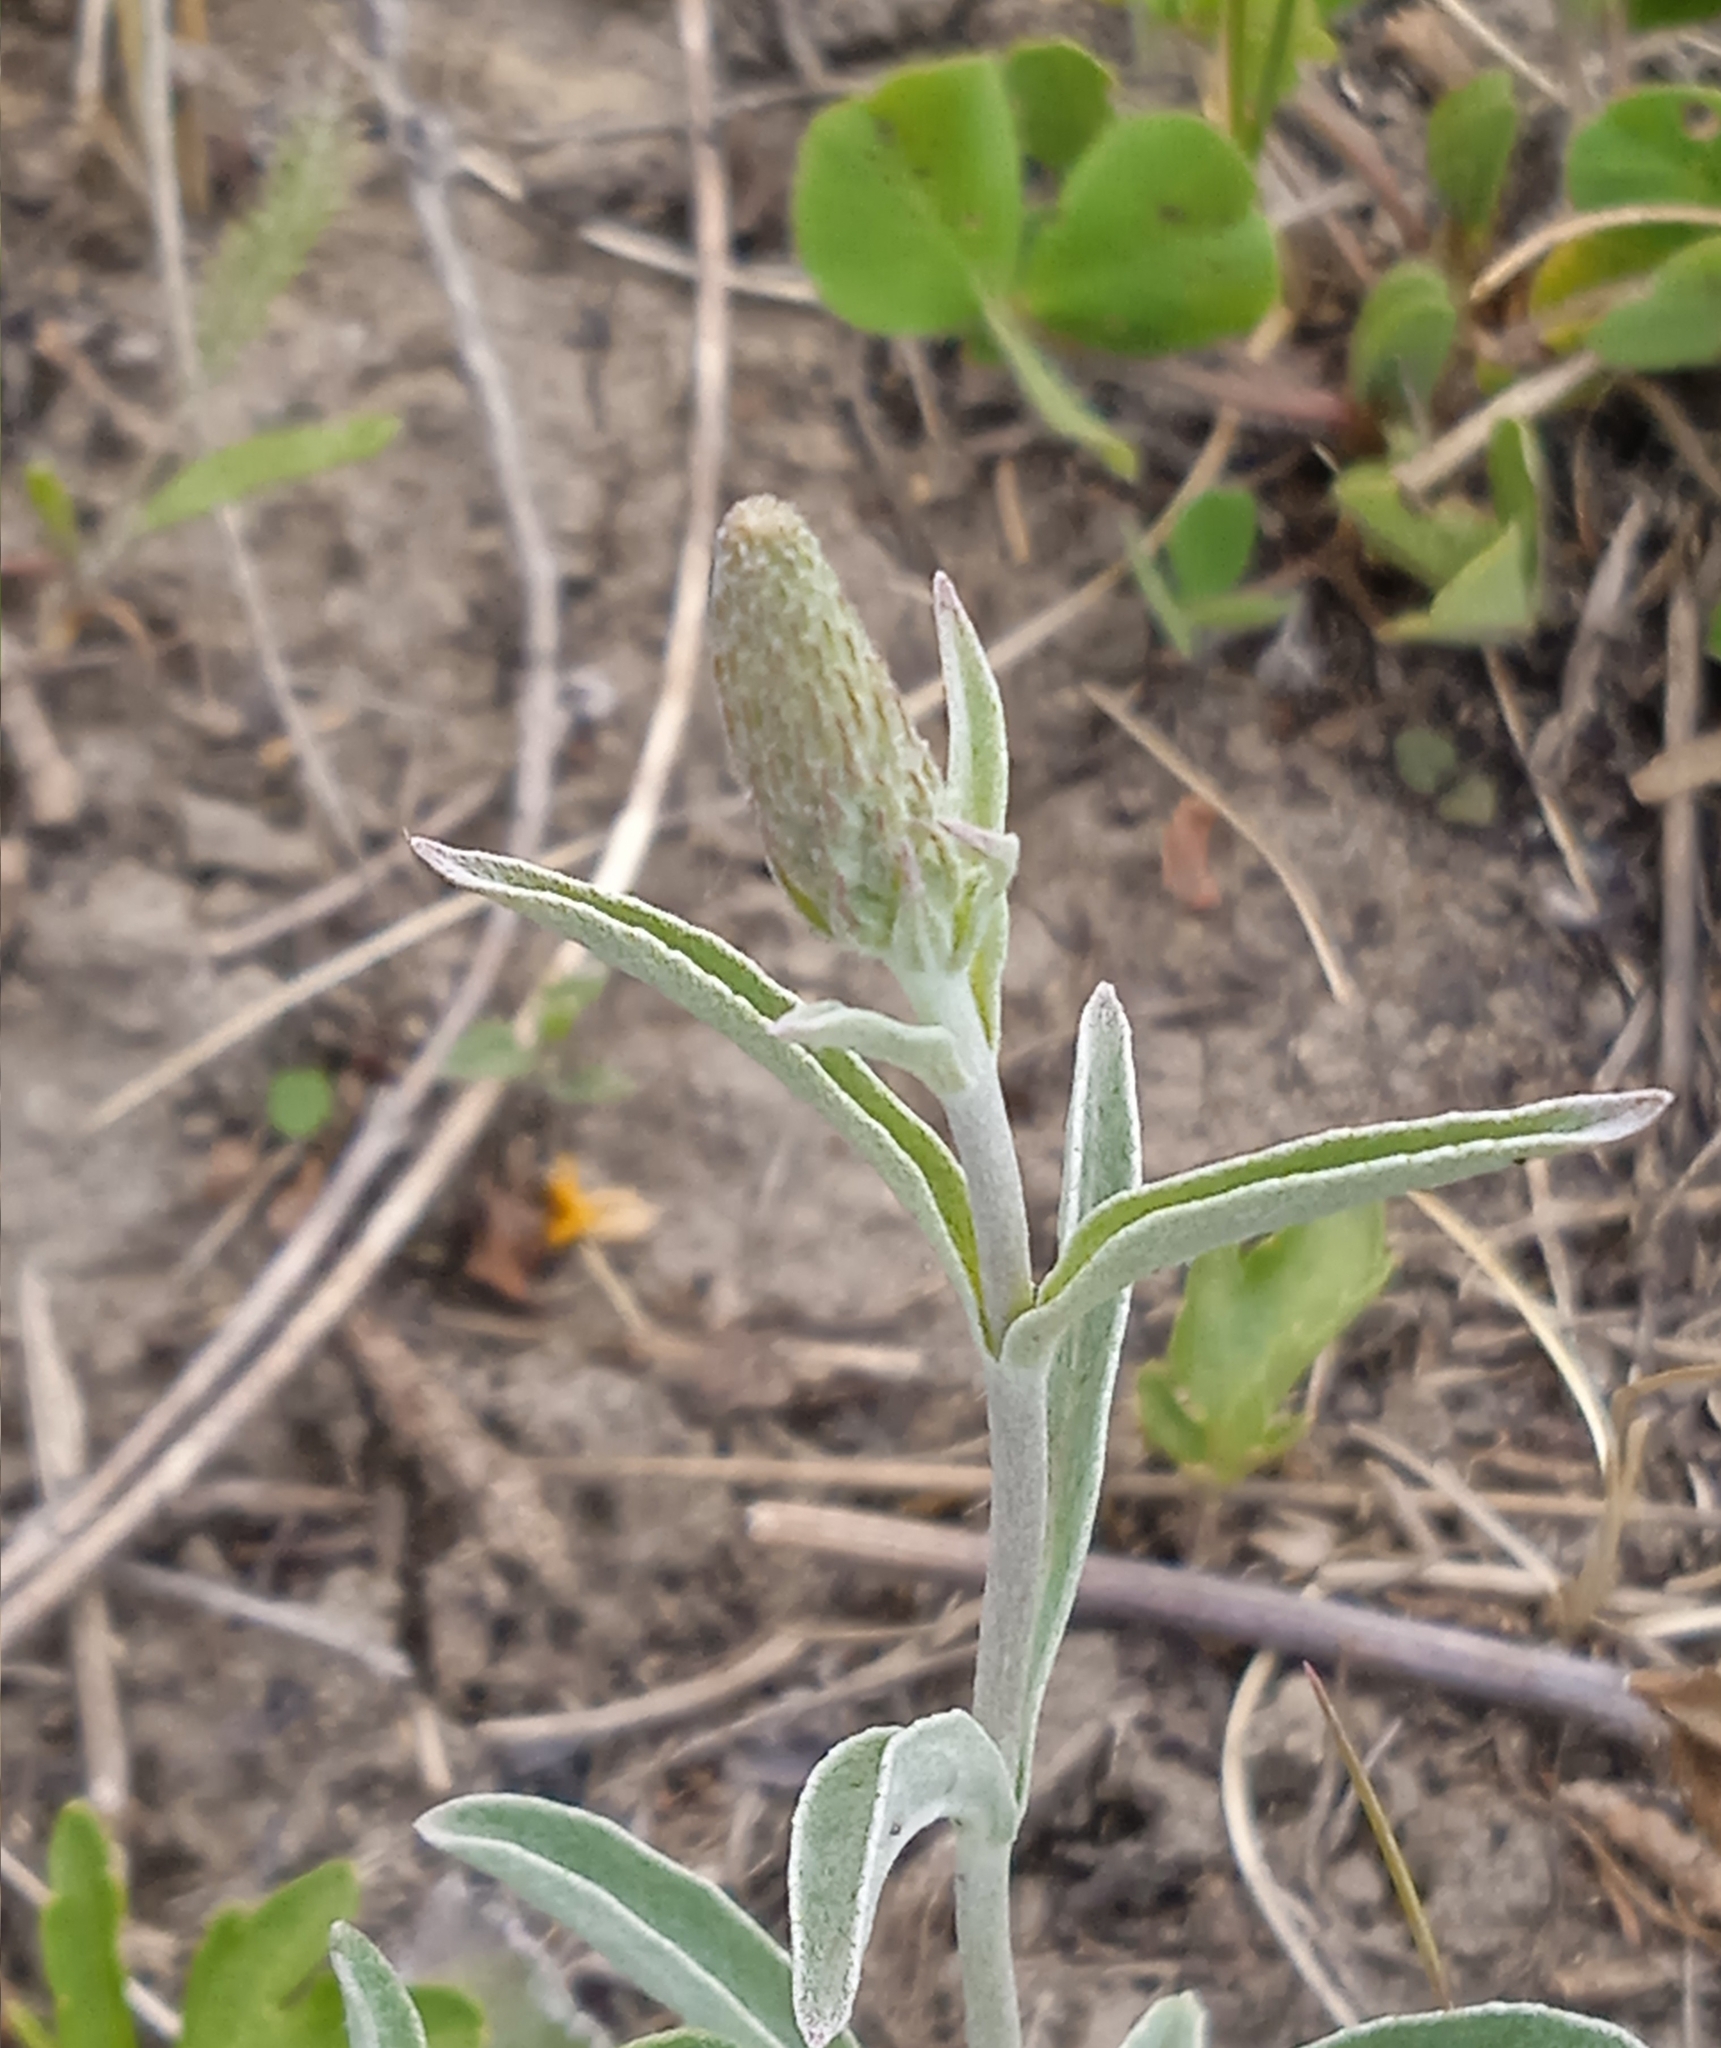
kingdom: Plantae
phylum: Tracheophyta
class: Magnoliopsida
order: Lamiales
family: Plantaginaceae
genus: Veronica
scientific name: Veronica incana
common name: Silver speedwell
